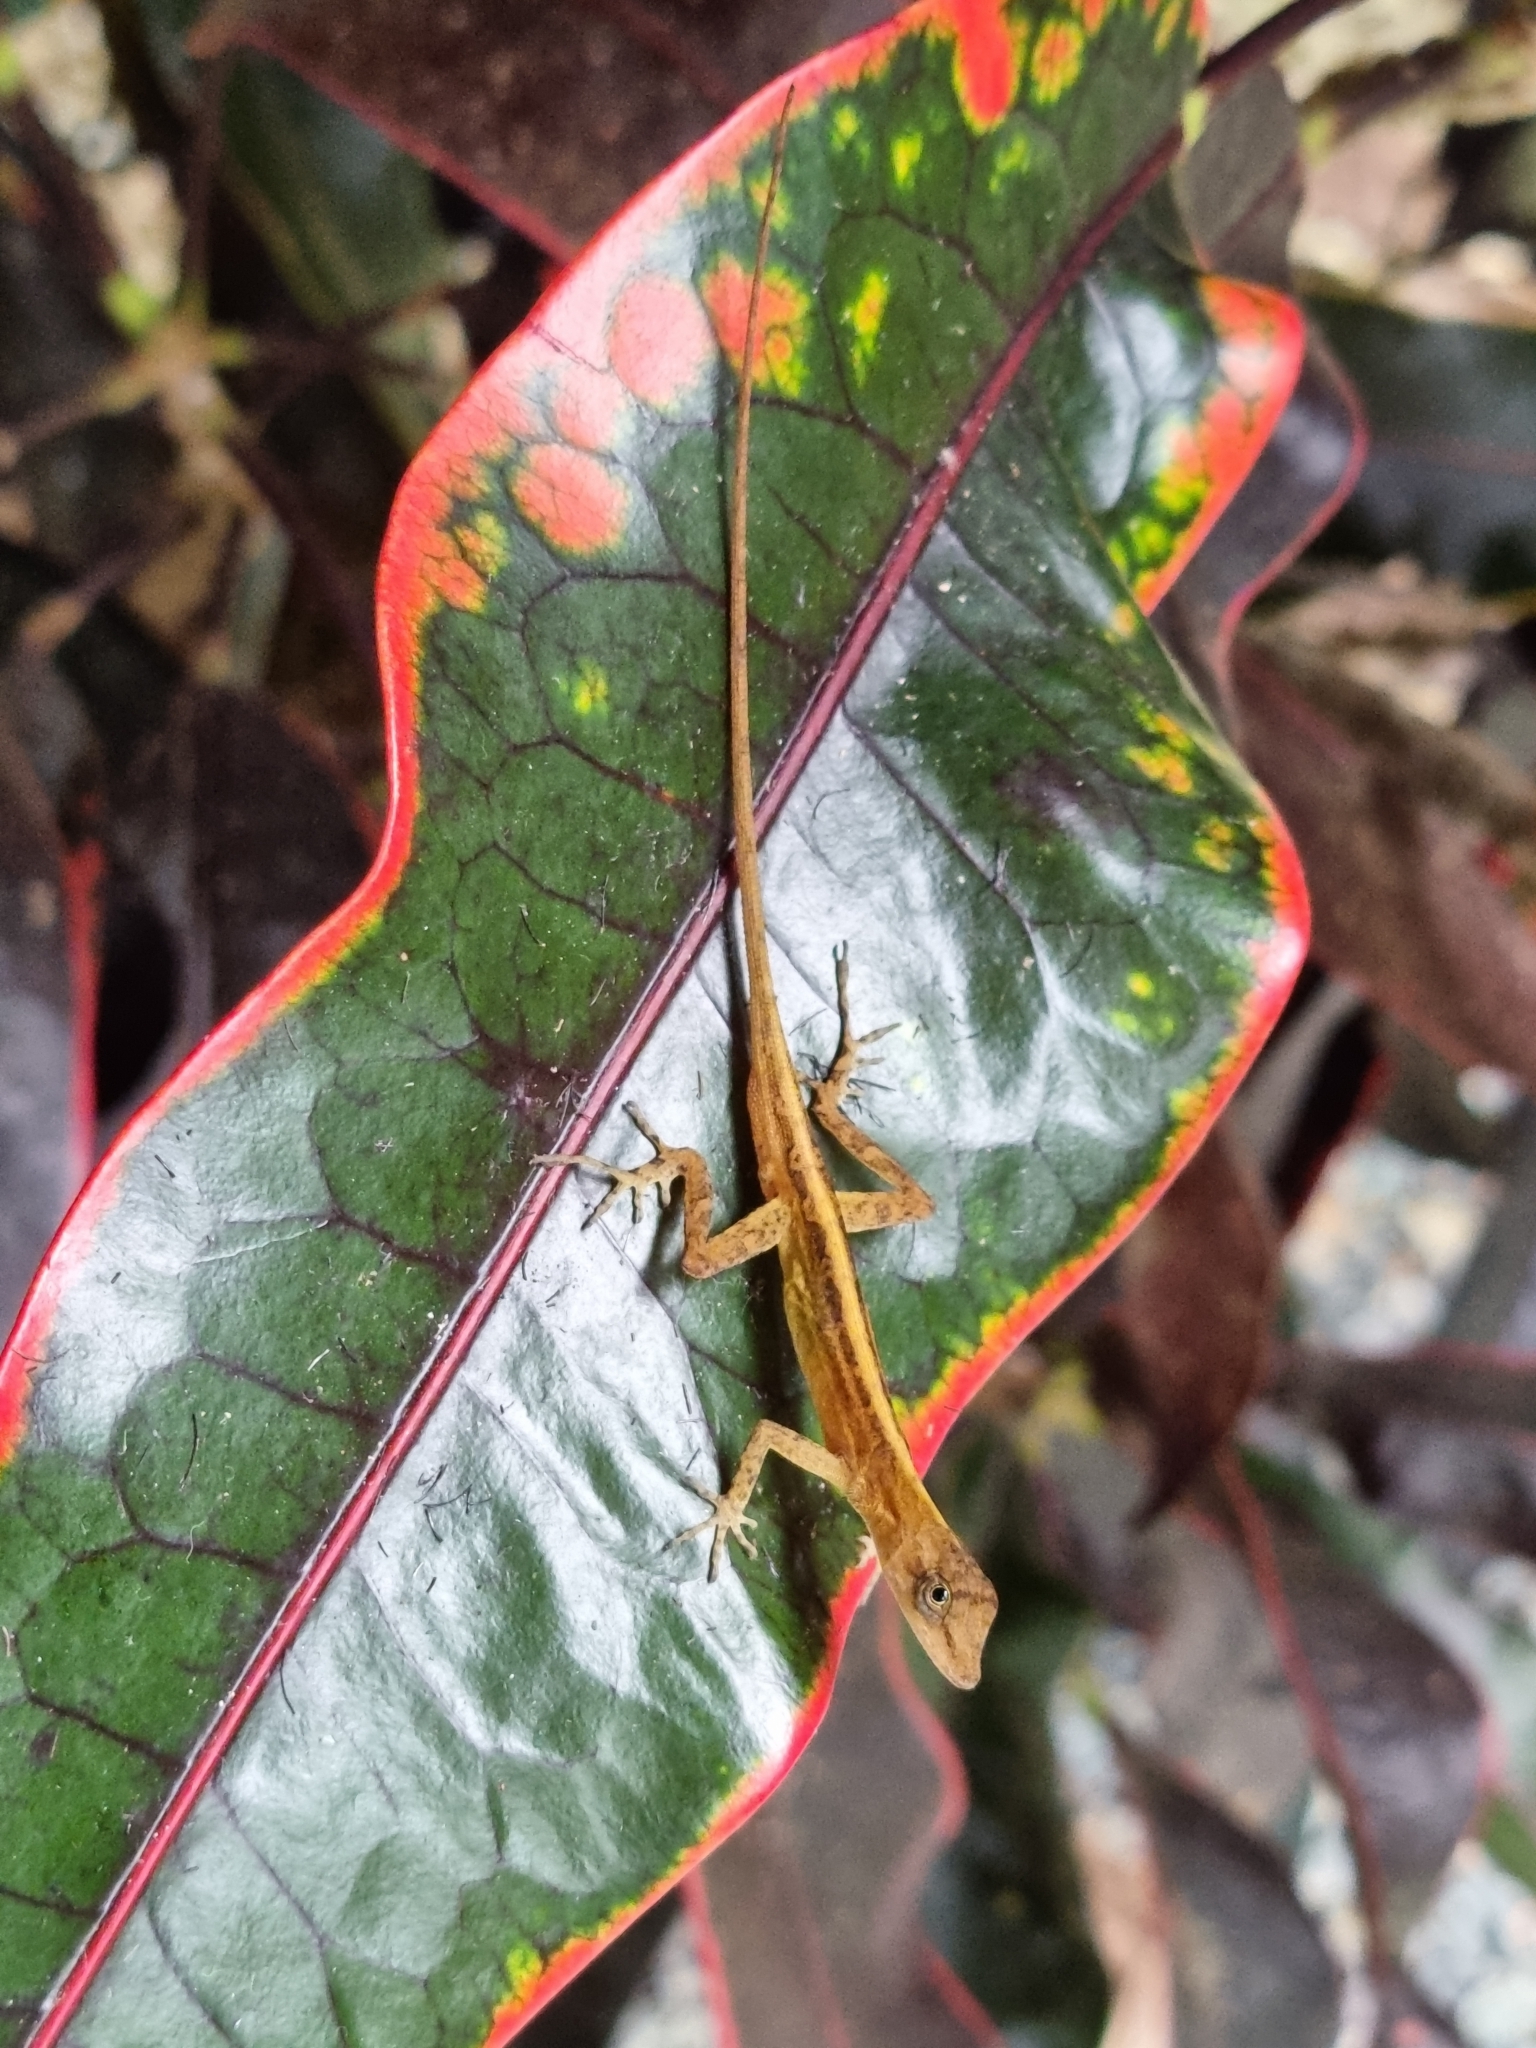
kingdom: Animalia
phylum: Chordata
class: Squamata
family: Dactyloidae
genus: Anolis
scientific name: Anolis lemurinus
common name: Ghost anole
